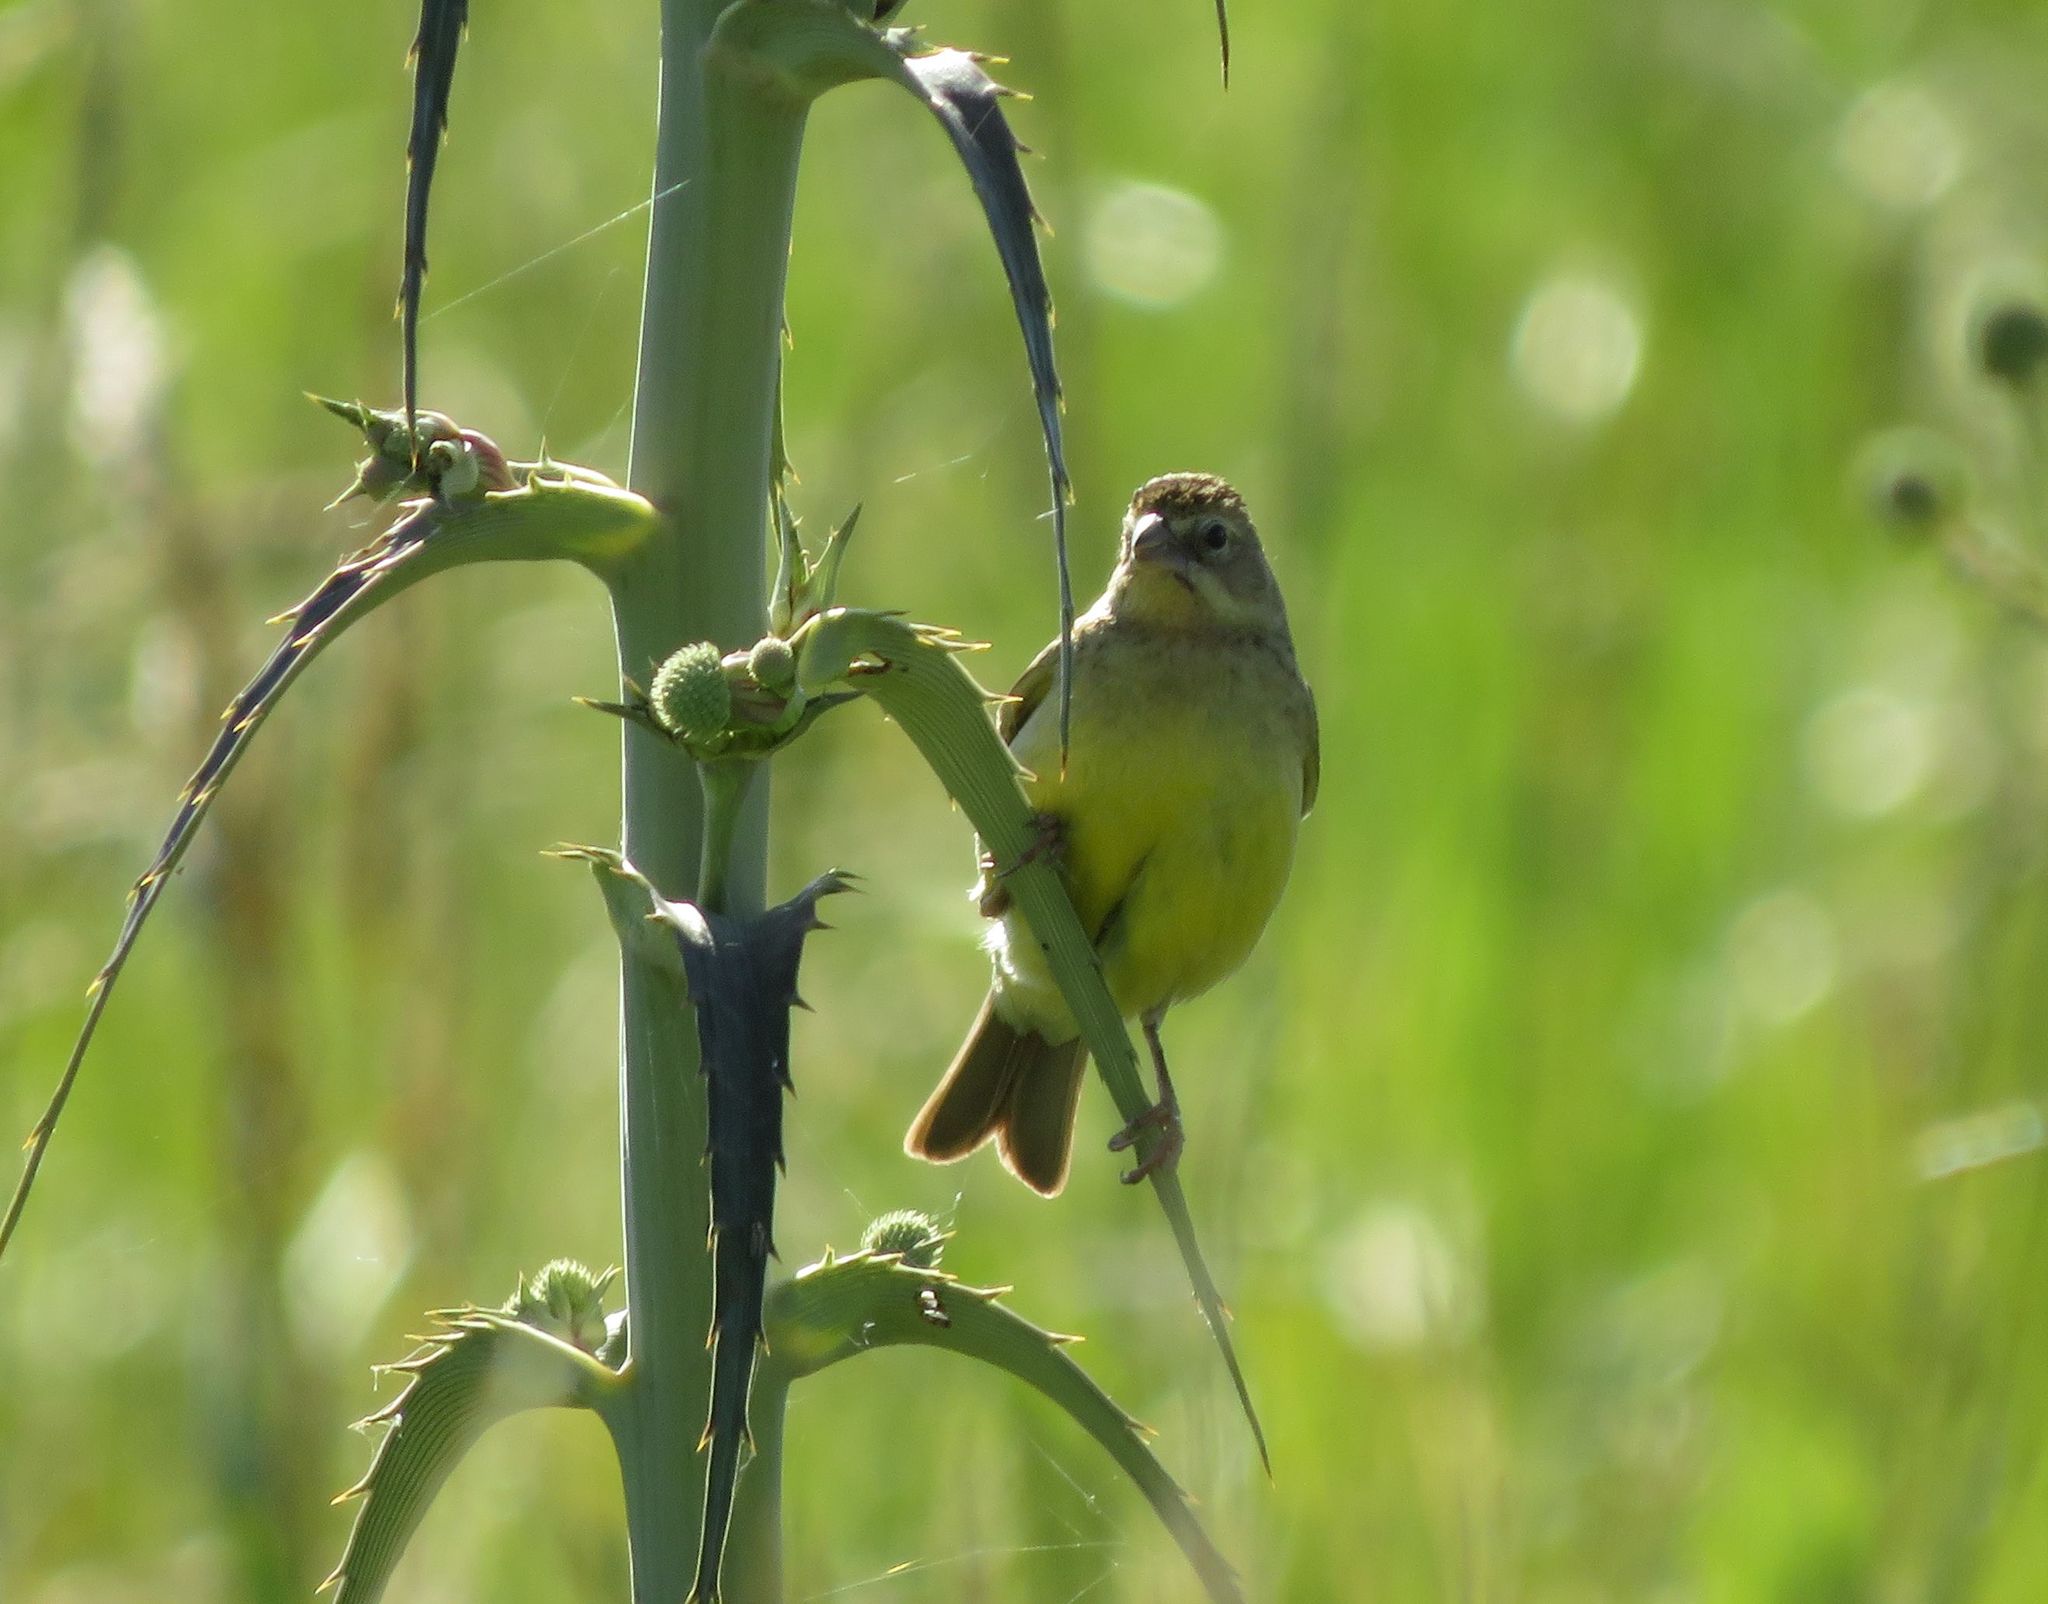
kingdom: Animalia
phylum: Chordata
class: Aves
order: Passeriformes
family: Thraupidae
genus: Sicalis
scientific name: Sicalis luteola
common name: Grassland yellow-finch
